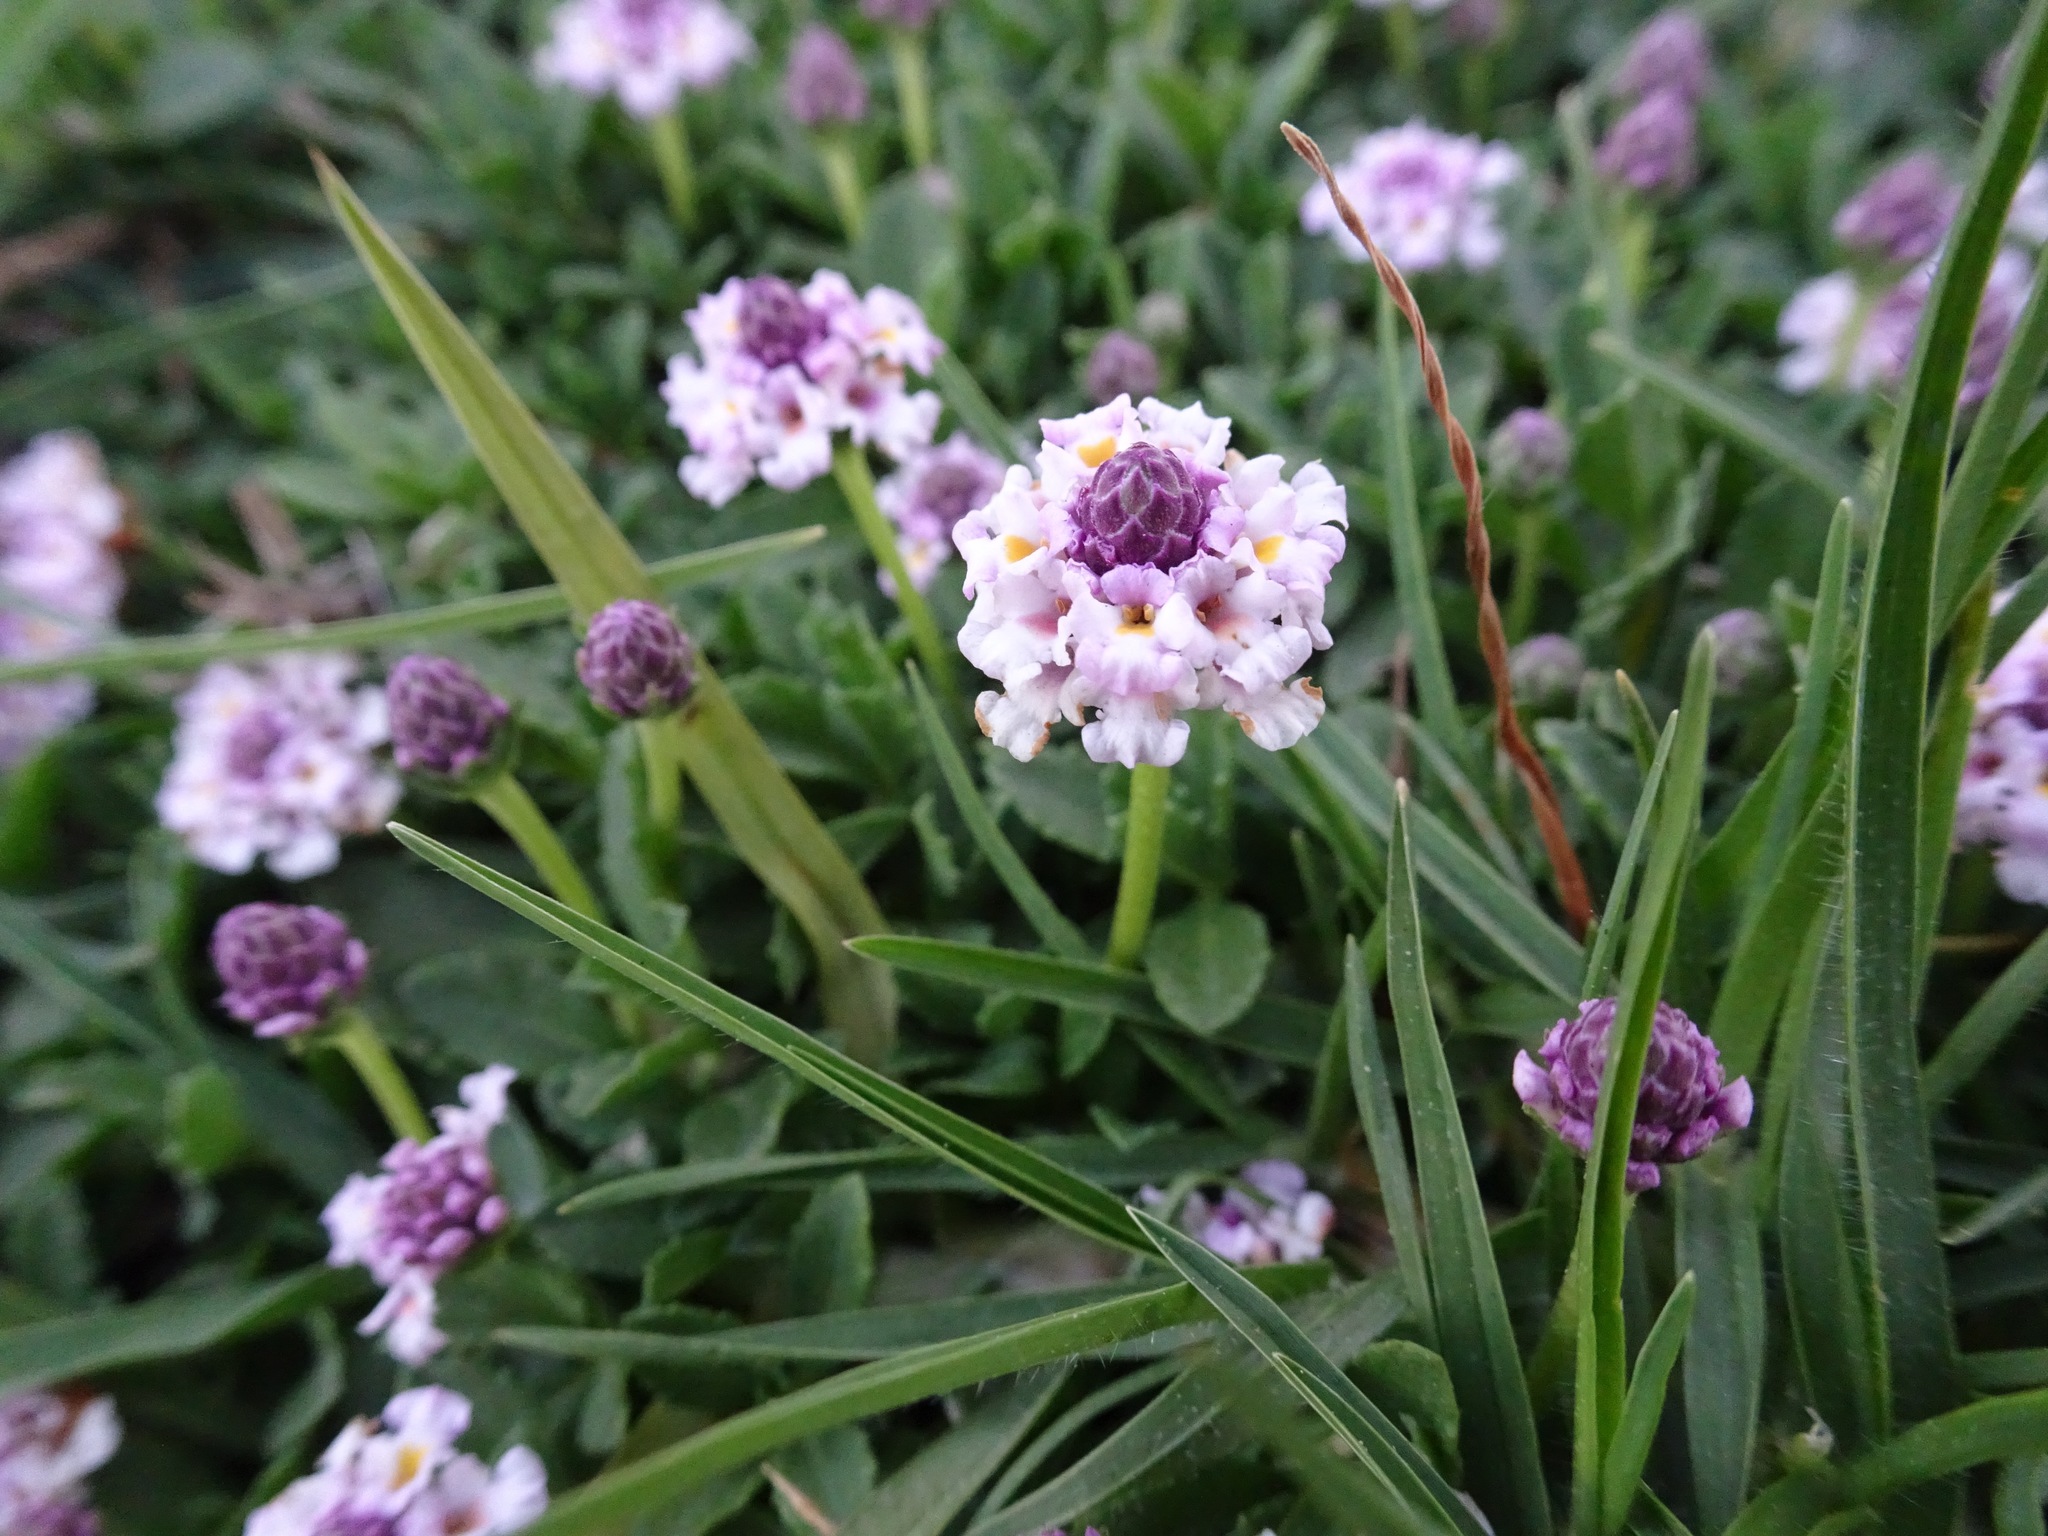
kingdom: Plantae
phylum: Tracheophyta
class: Magnoliopsida
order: Lamiales
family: Verbenaceae
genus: Phyla
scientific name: Phyla nodiflora
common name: Frogfruit
